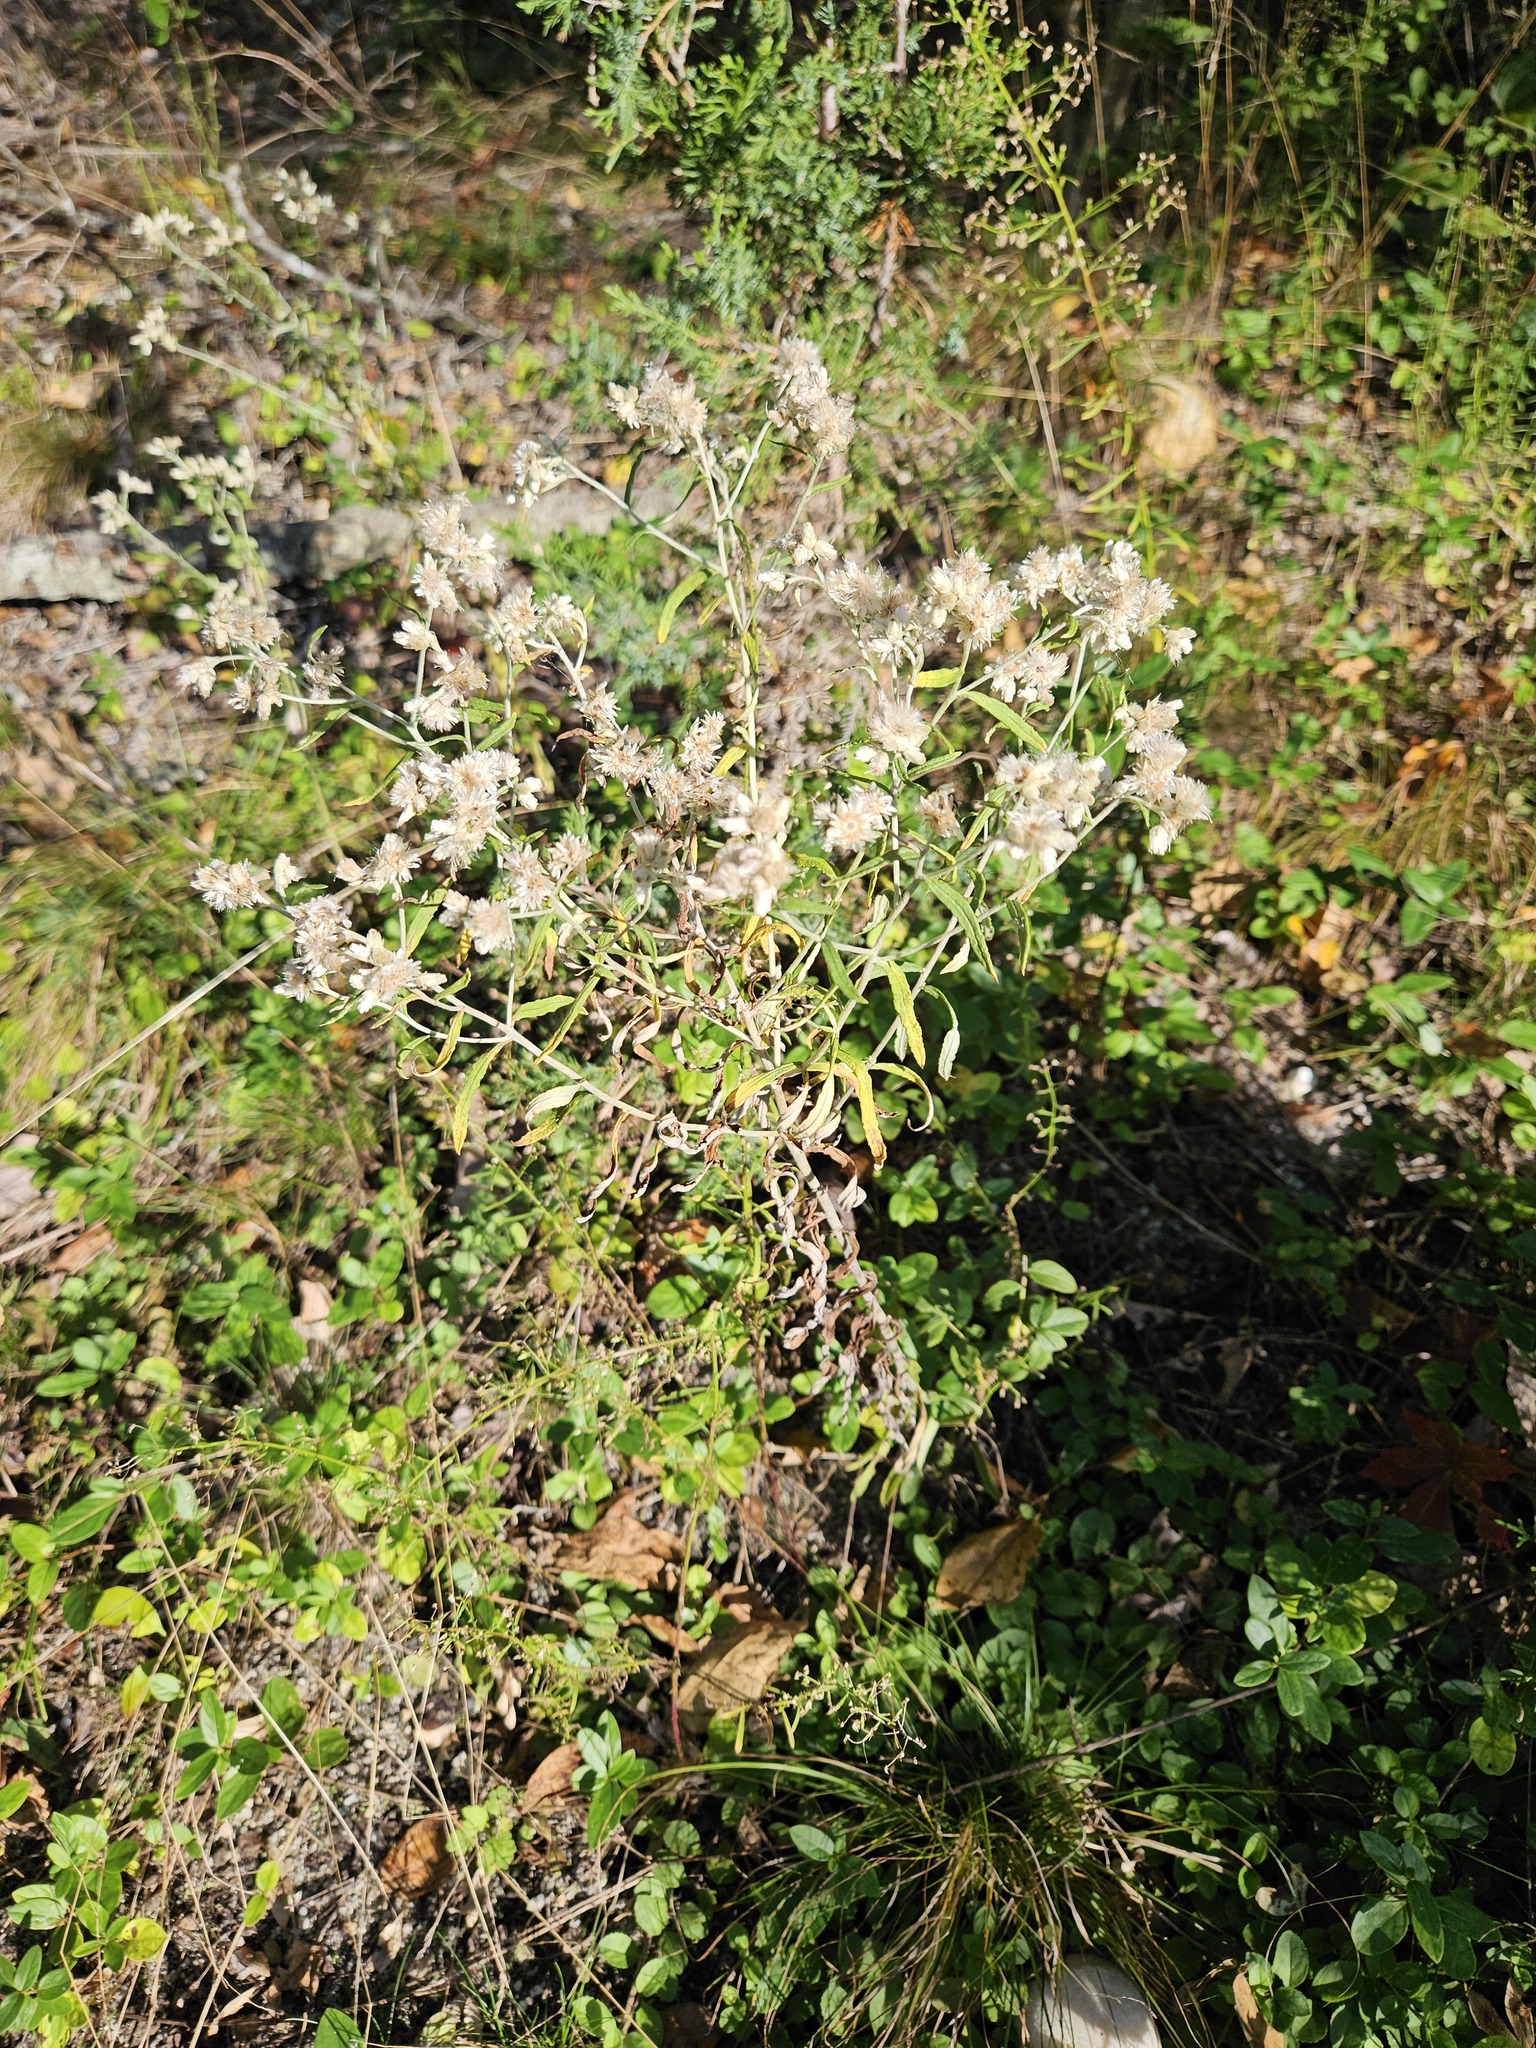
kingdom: Plantae
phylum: Tracheophyta
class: Magnoliopsida
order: Asterales
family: Asteraceae
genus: Pseudognaphalium
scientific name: Pseudognaphalium obtusifolium
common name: Eastern rabbit-tobacco
